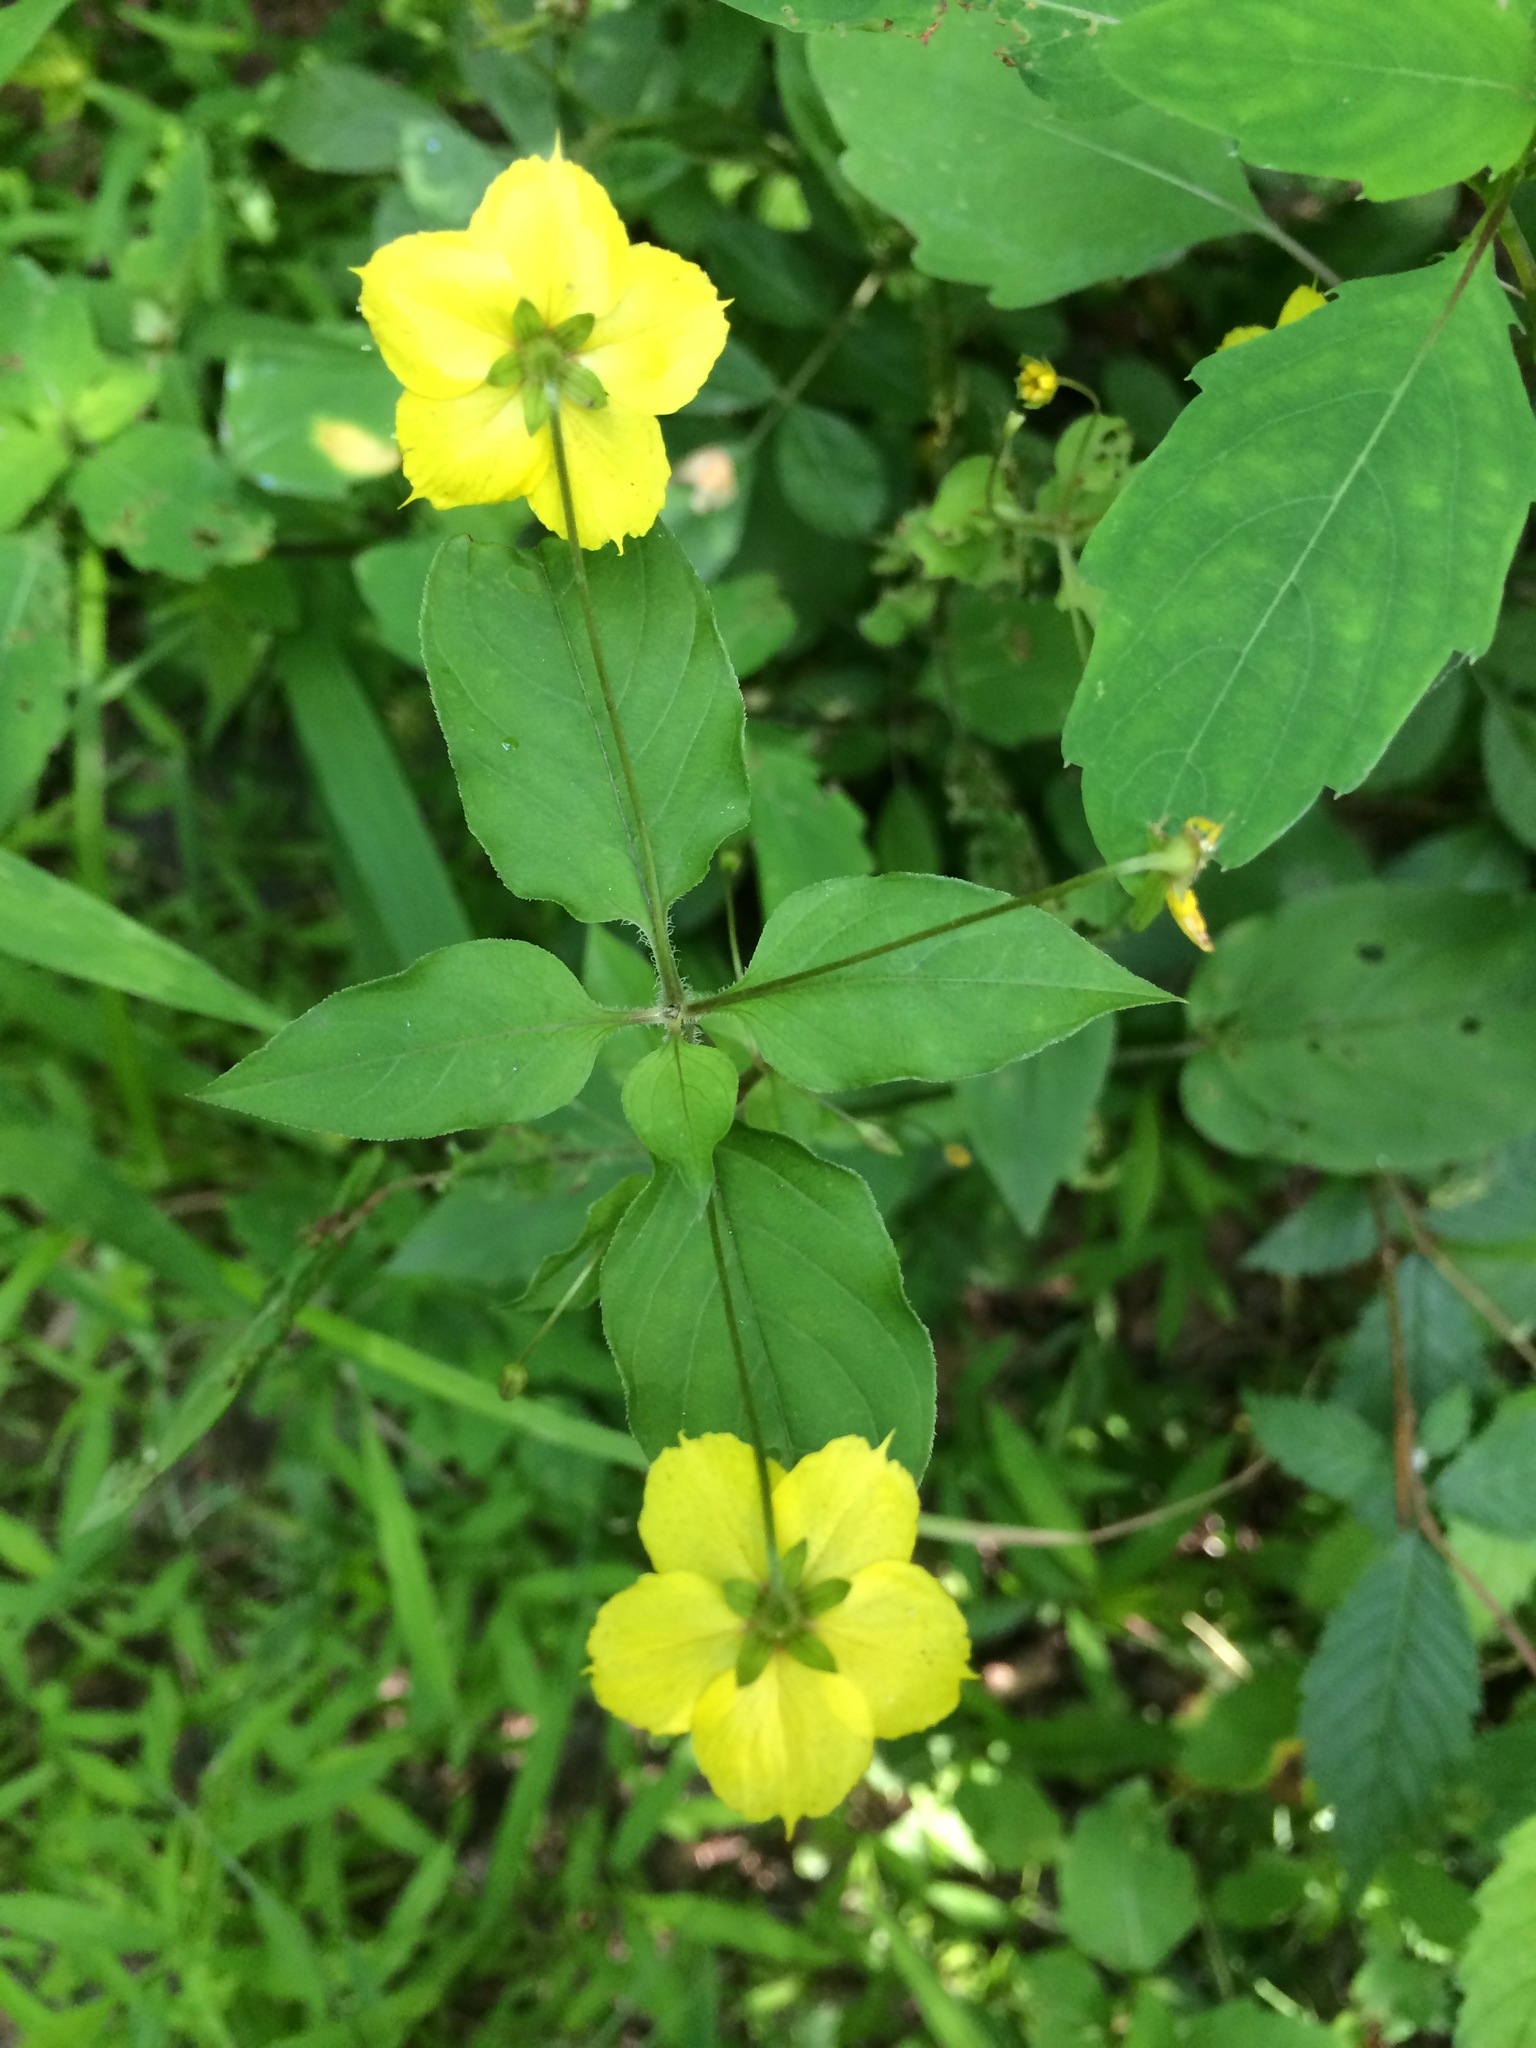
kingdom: Plantae
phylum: Tracheophyta
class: Magnoliopsida
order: Ericales
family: Primulaceae
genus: Lysimachia
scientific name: Lysimachia ciliata
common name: Fringed loosestrife
